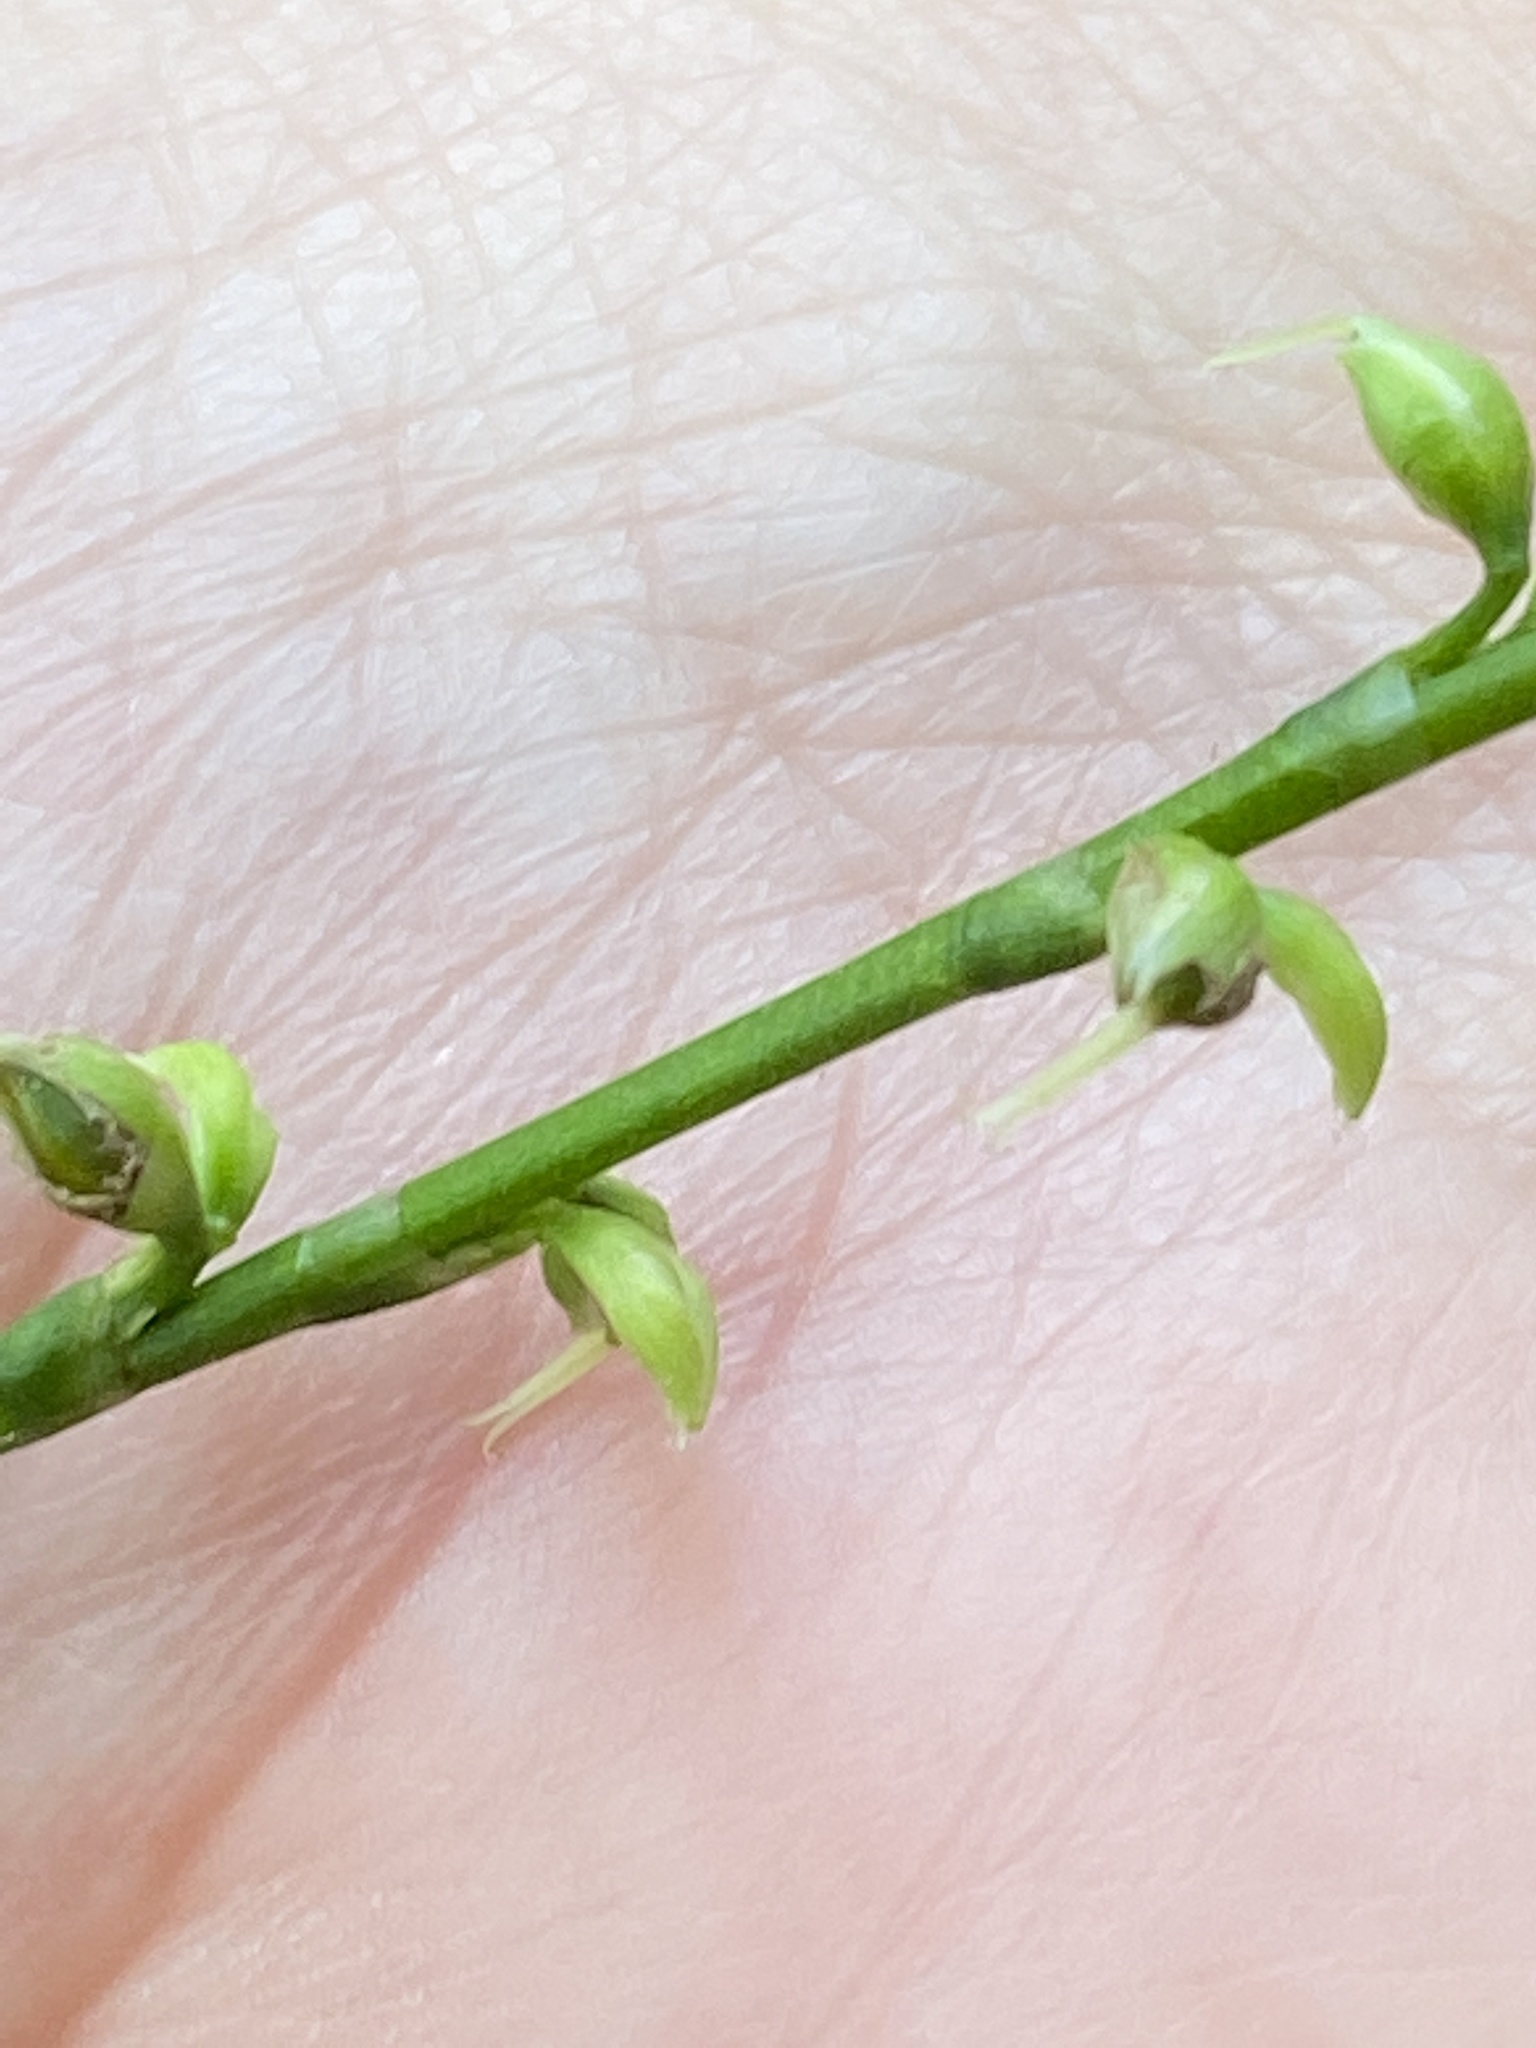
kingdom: Plantae
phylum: Tracheophyta
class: Magnoliopsida
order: Caryophyllales
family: Polygonaceae
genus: Persicaria
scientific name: Persicaria virginiana
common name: Jumpseed
